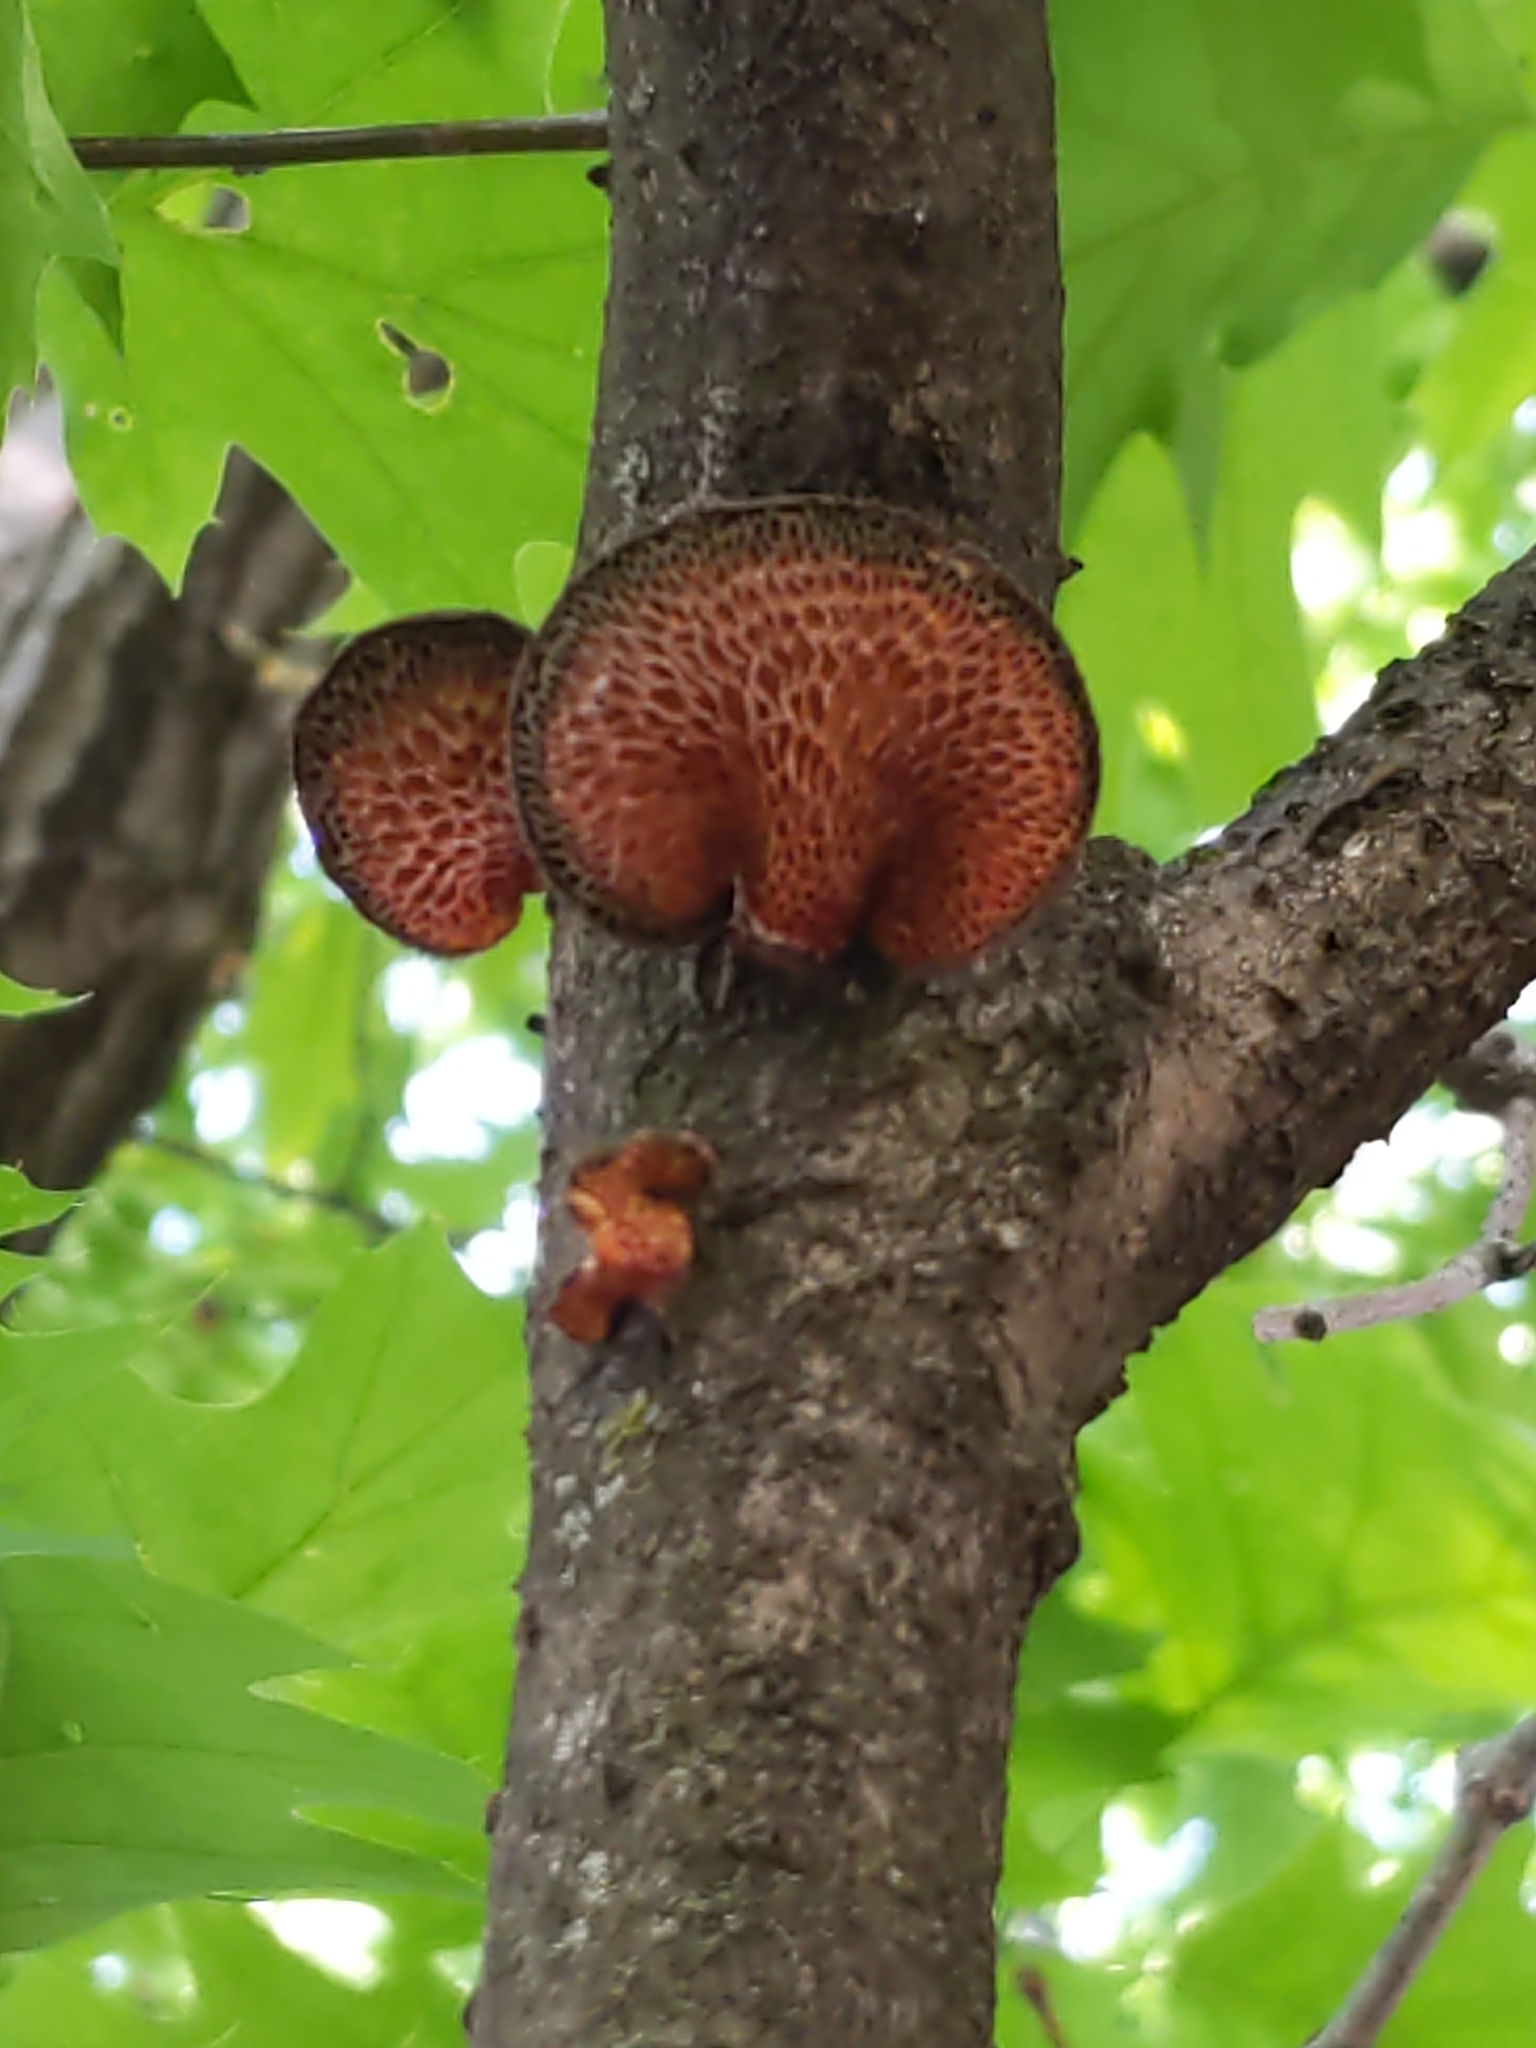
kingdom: Fungi
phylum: Basidiomycota
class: Agaricomycetes
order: Polyporales
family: Polyporaceae
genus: Neofavolus
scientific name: Neofavolus
